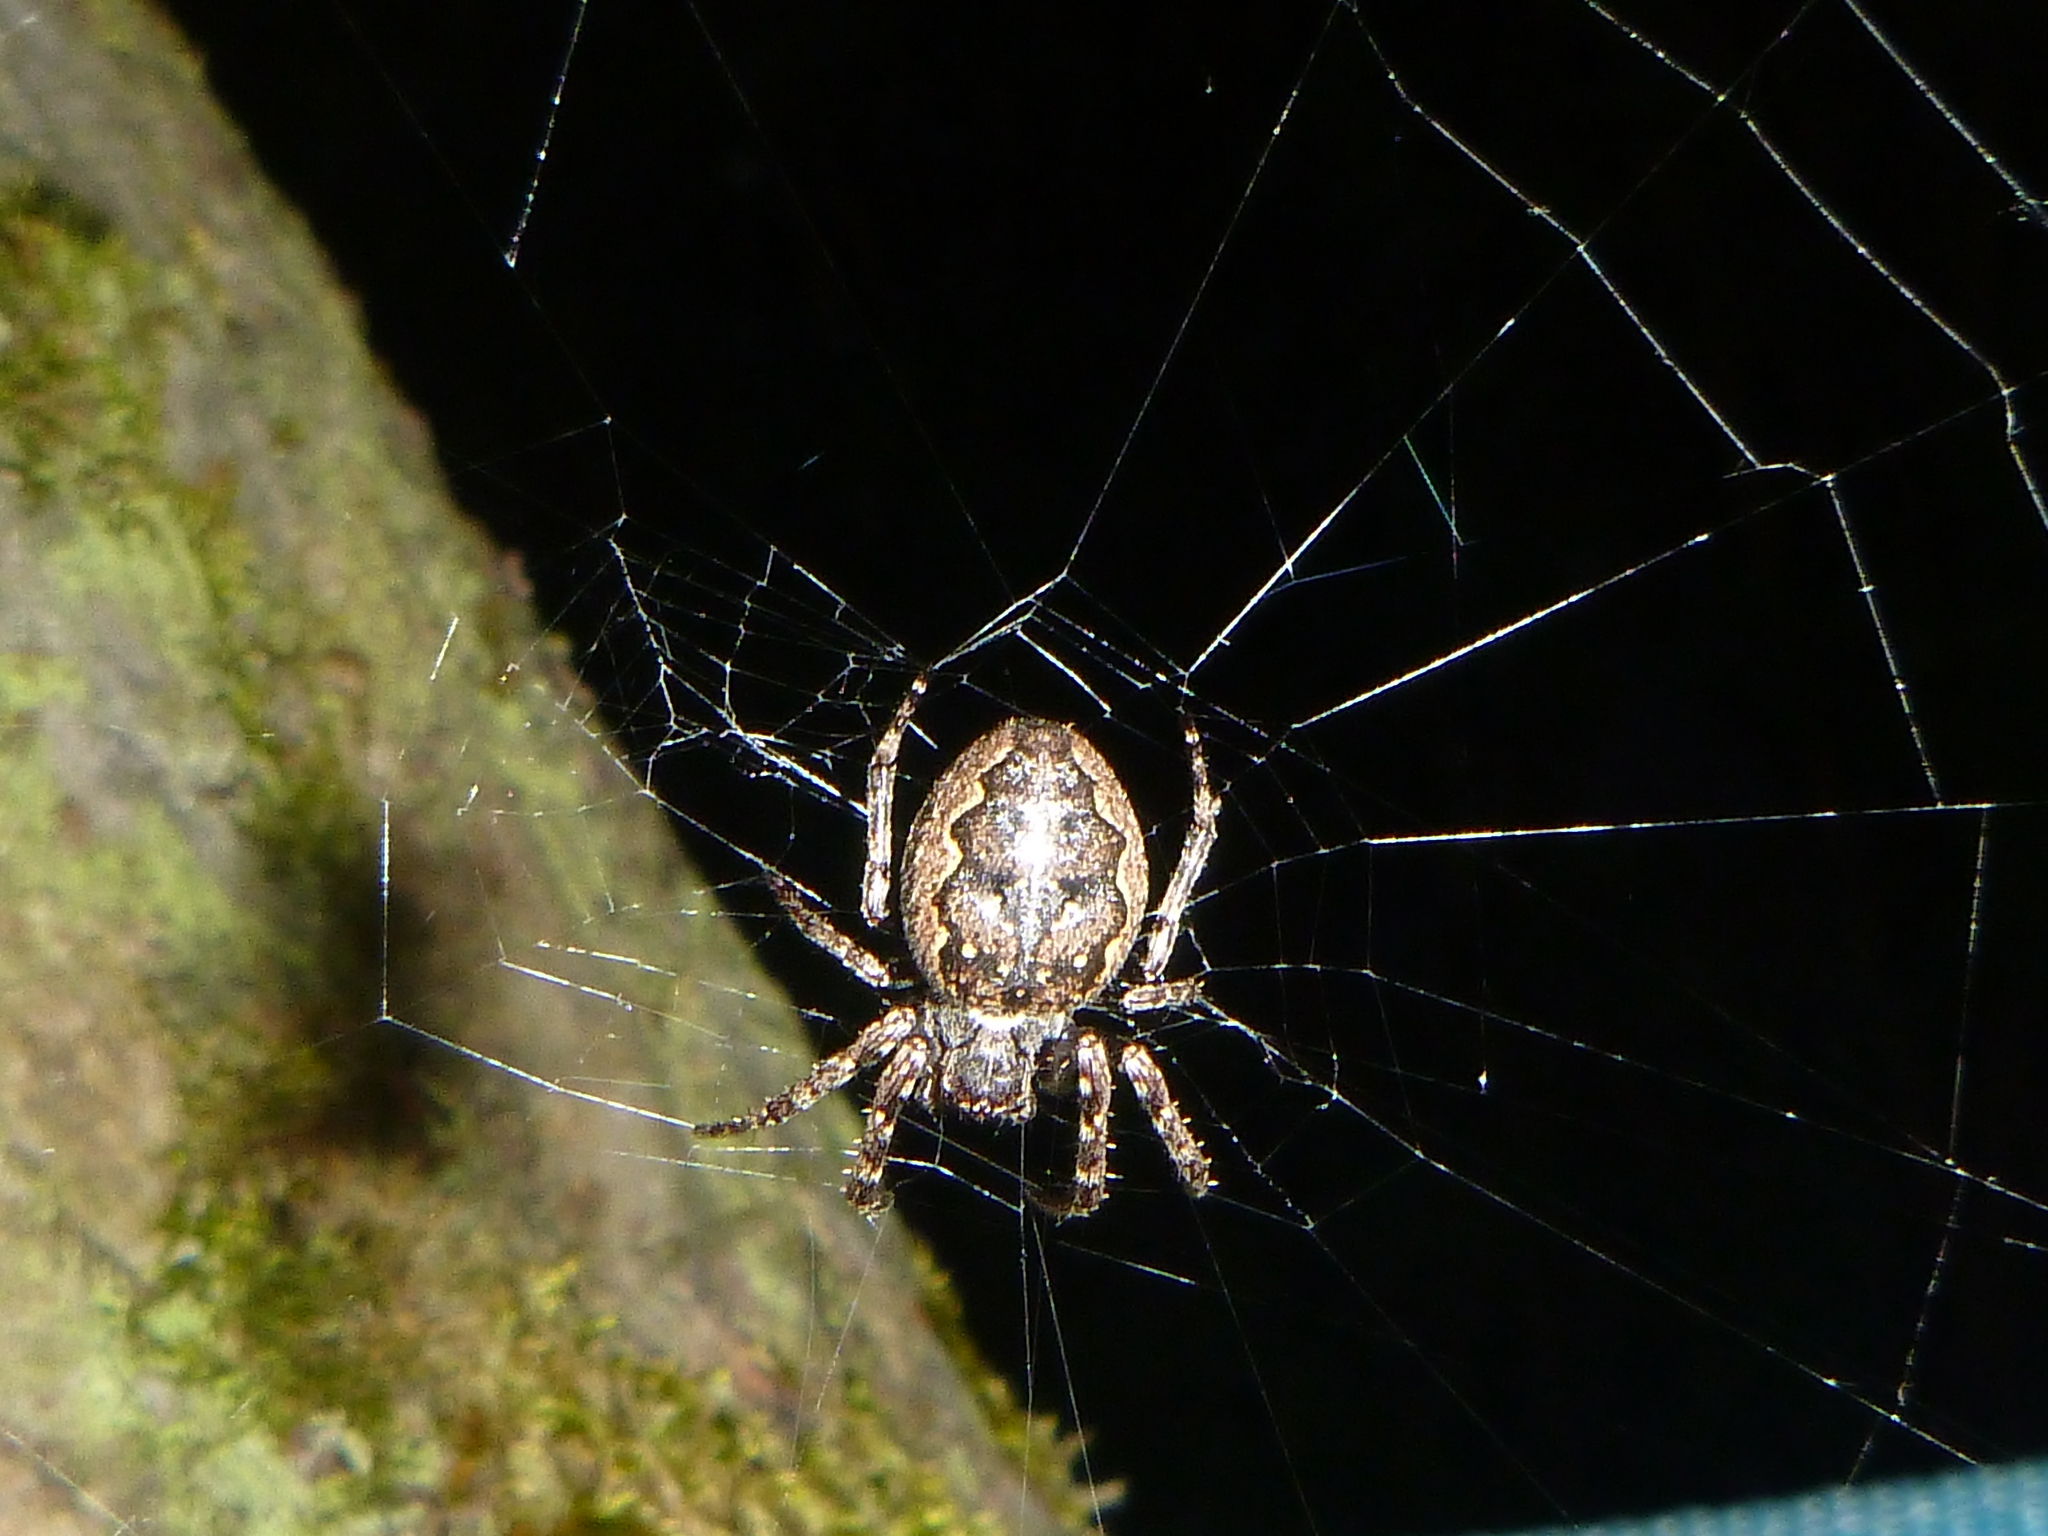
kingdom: Animalia
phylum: Arthropoda
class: Arachnida
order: Araneae
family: Araneidae
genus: Nuctenea
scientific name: Nuctenea umbratica
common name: Toad spider
